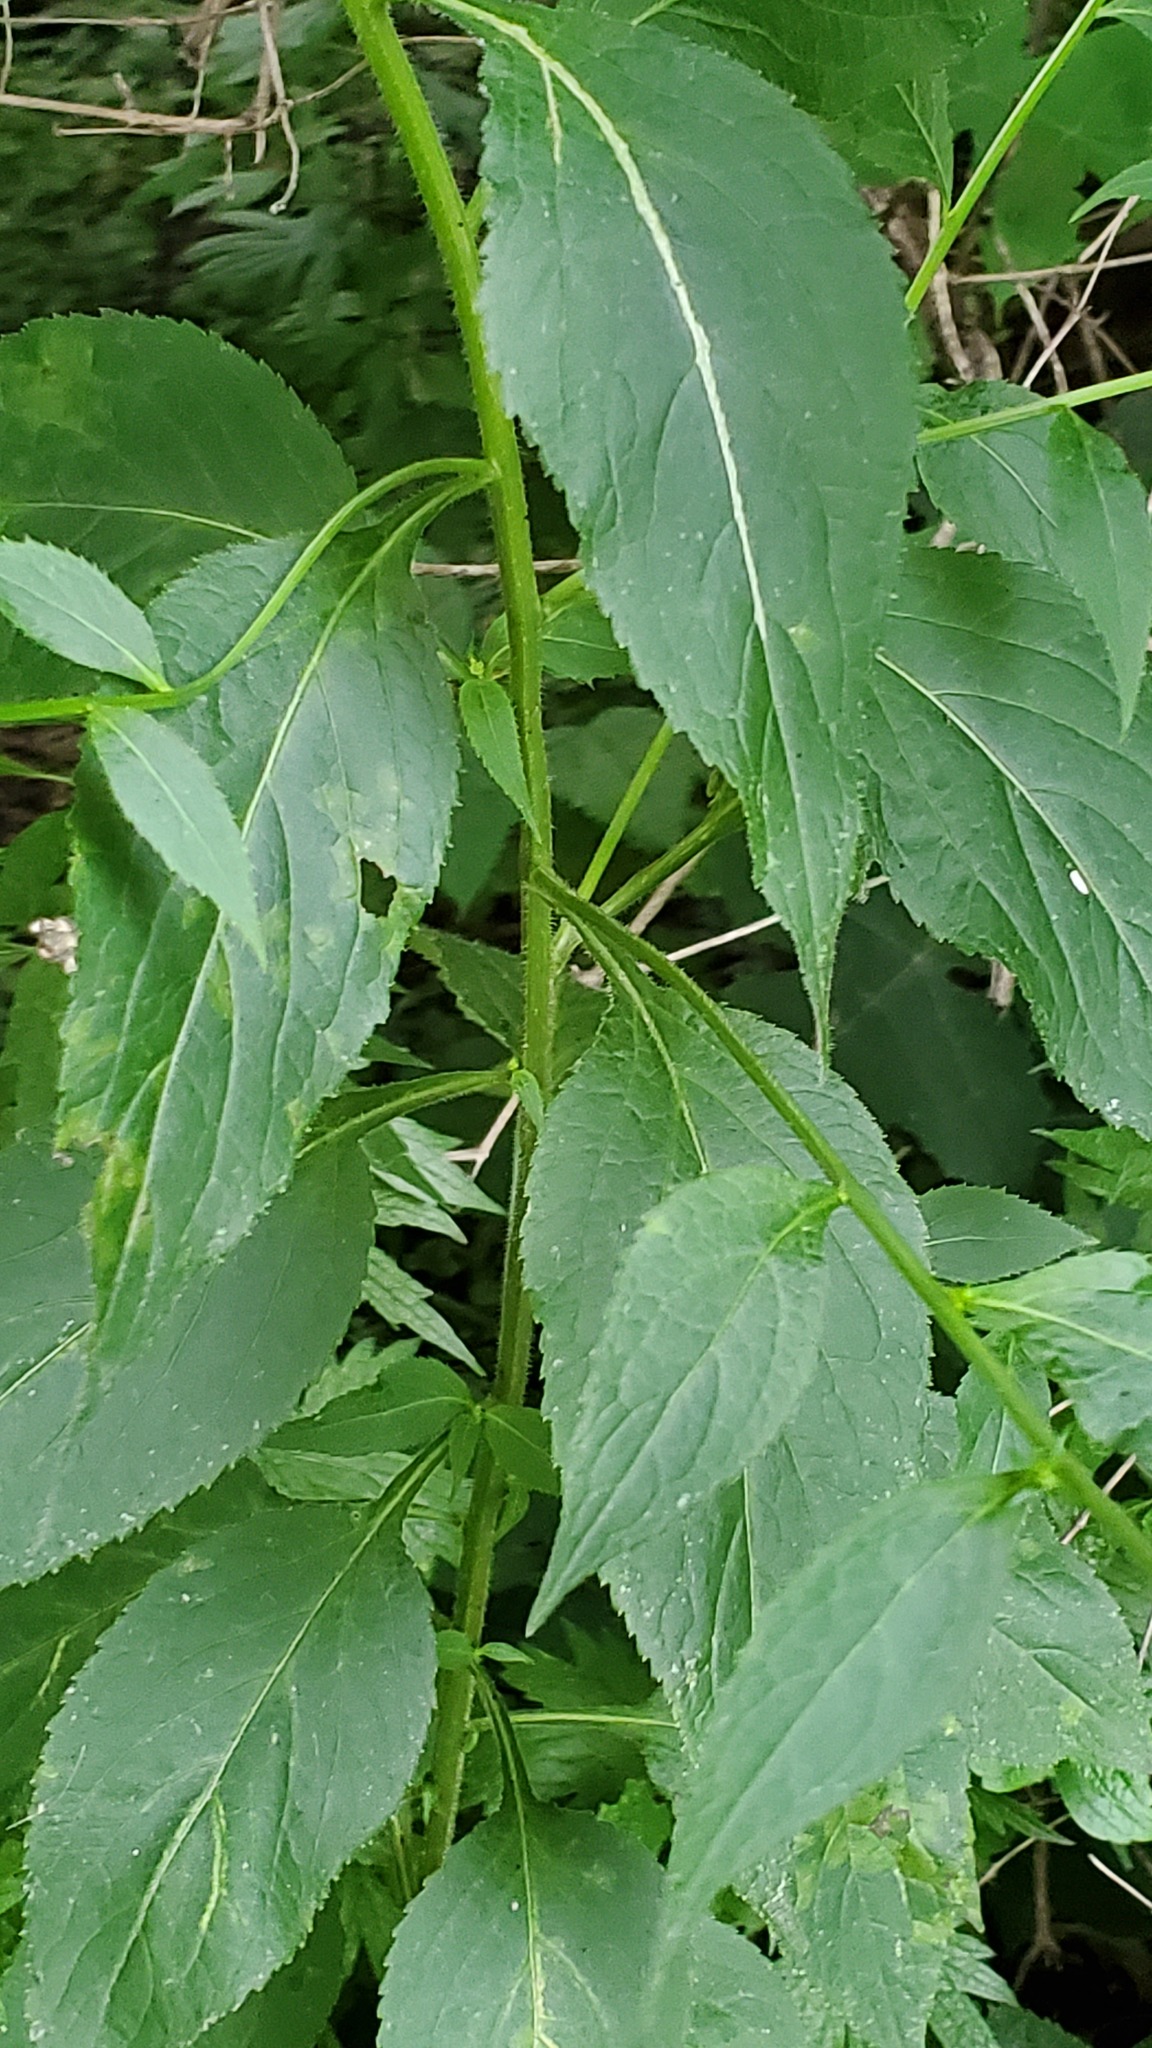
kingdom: Plantae
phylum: Tracheophyta
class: Magnoliopsida
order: Asterales
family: Campanulaceae
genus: Campanulastrum
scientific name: Campanulastrum americanum
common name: American bellflower
